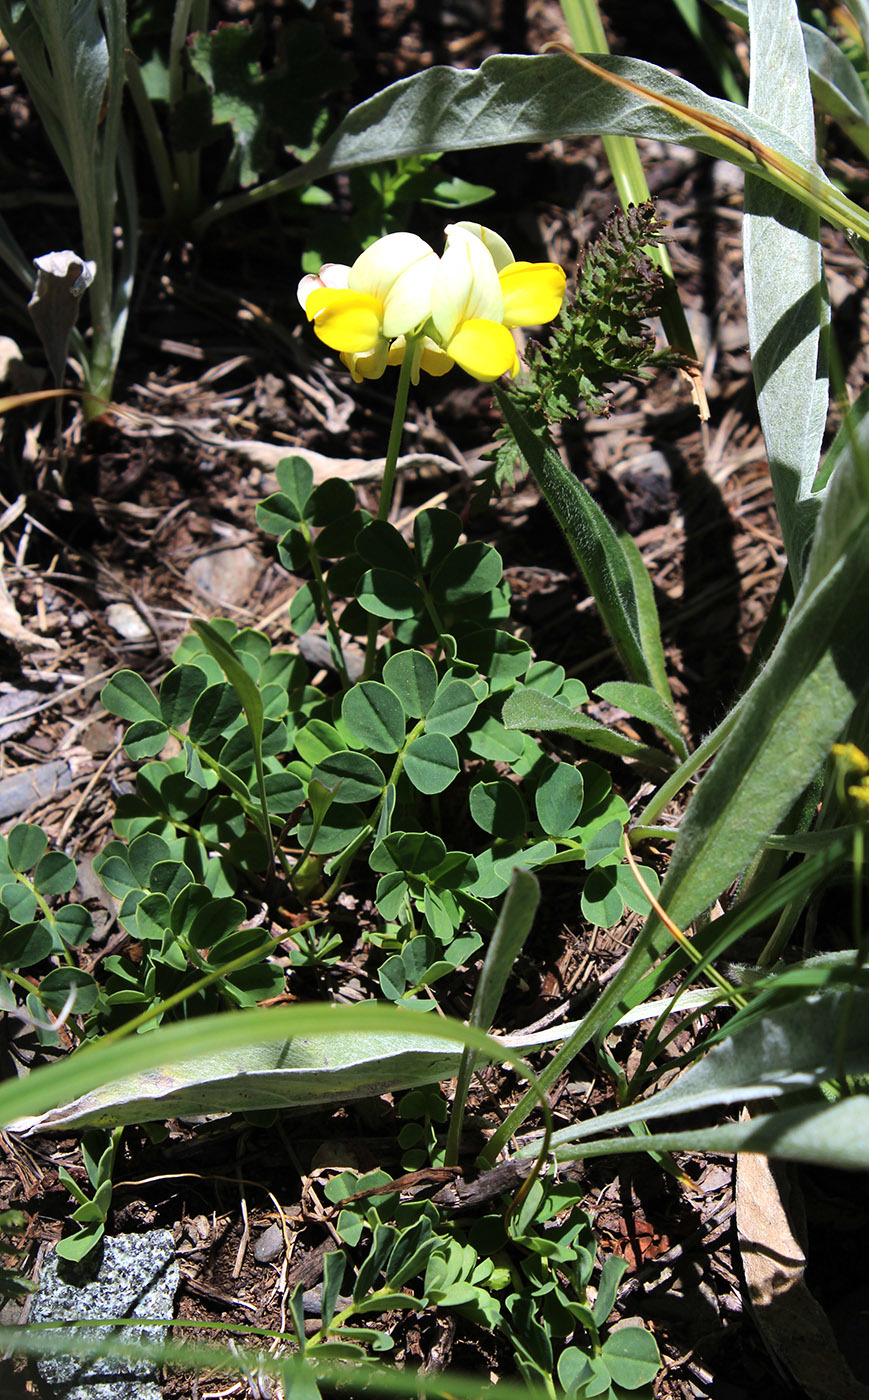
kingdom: Plantae
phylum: Tracheophyta
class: Magnoliopsida
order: Fabales
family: Fabaceae
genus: Coronilla
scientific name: Coronilla orientalis
